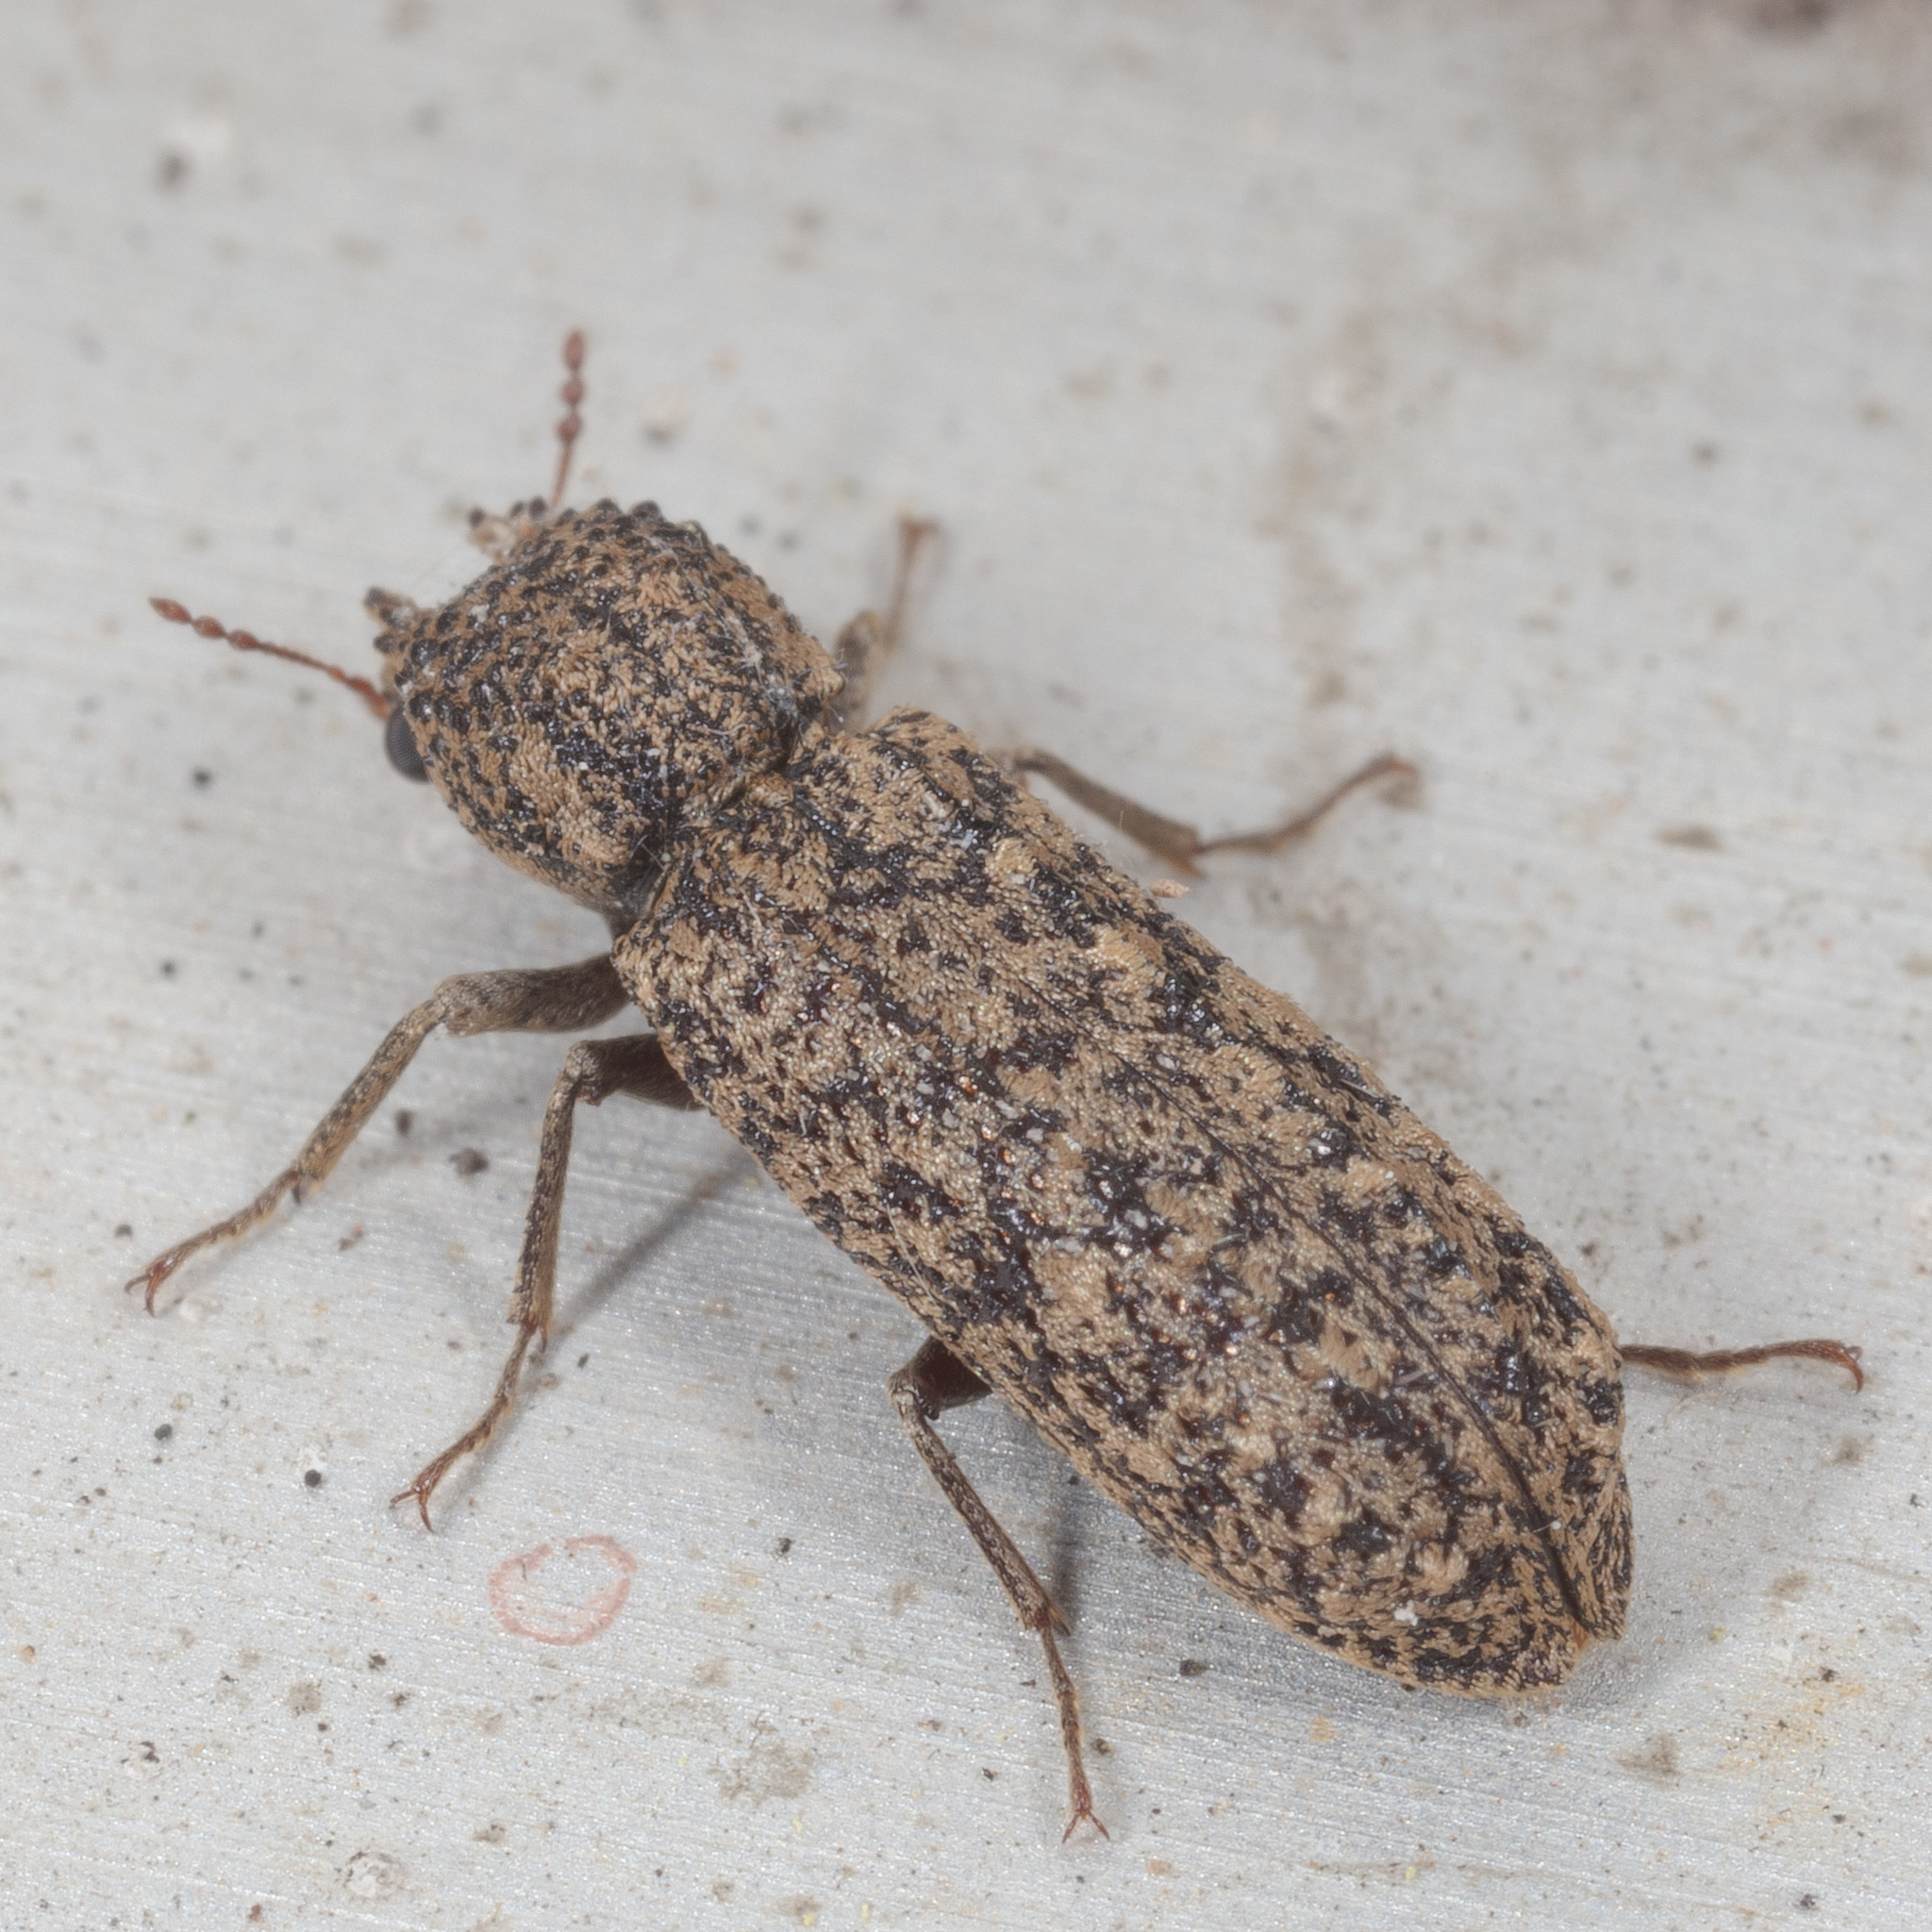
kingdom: Animalia
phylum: Arthropoda
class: Insecta
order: Coleoptera
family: Bostrichidae
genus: Lichenophanes
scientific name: Lichenophanes bicornis
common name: Two-horned powder-post beetle
